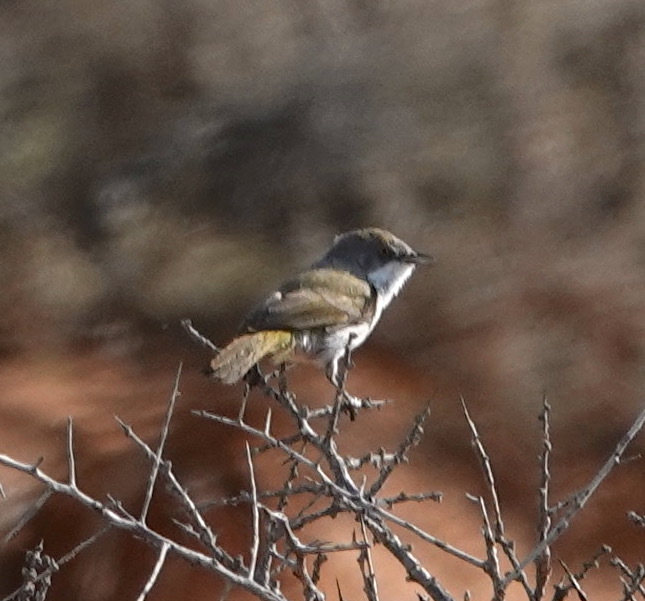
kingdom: Animalia
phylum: Chordata
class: Aves
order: Passeriformes
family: Cisticolidae
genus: Eremomela
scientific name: Eremomela gregalis
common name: Karoo eremomela
